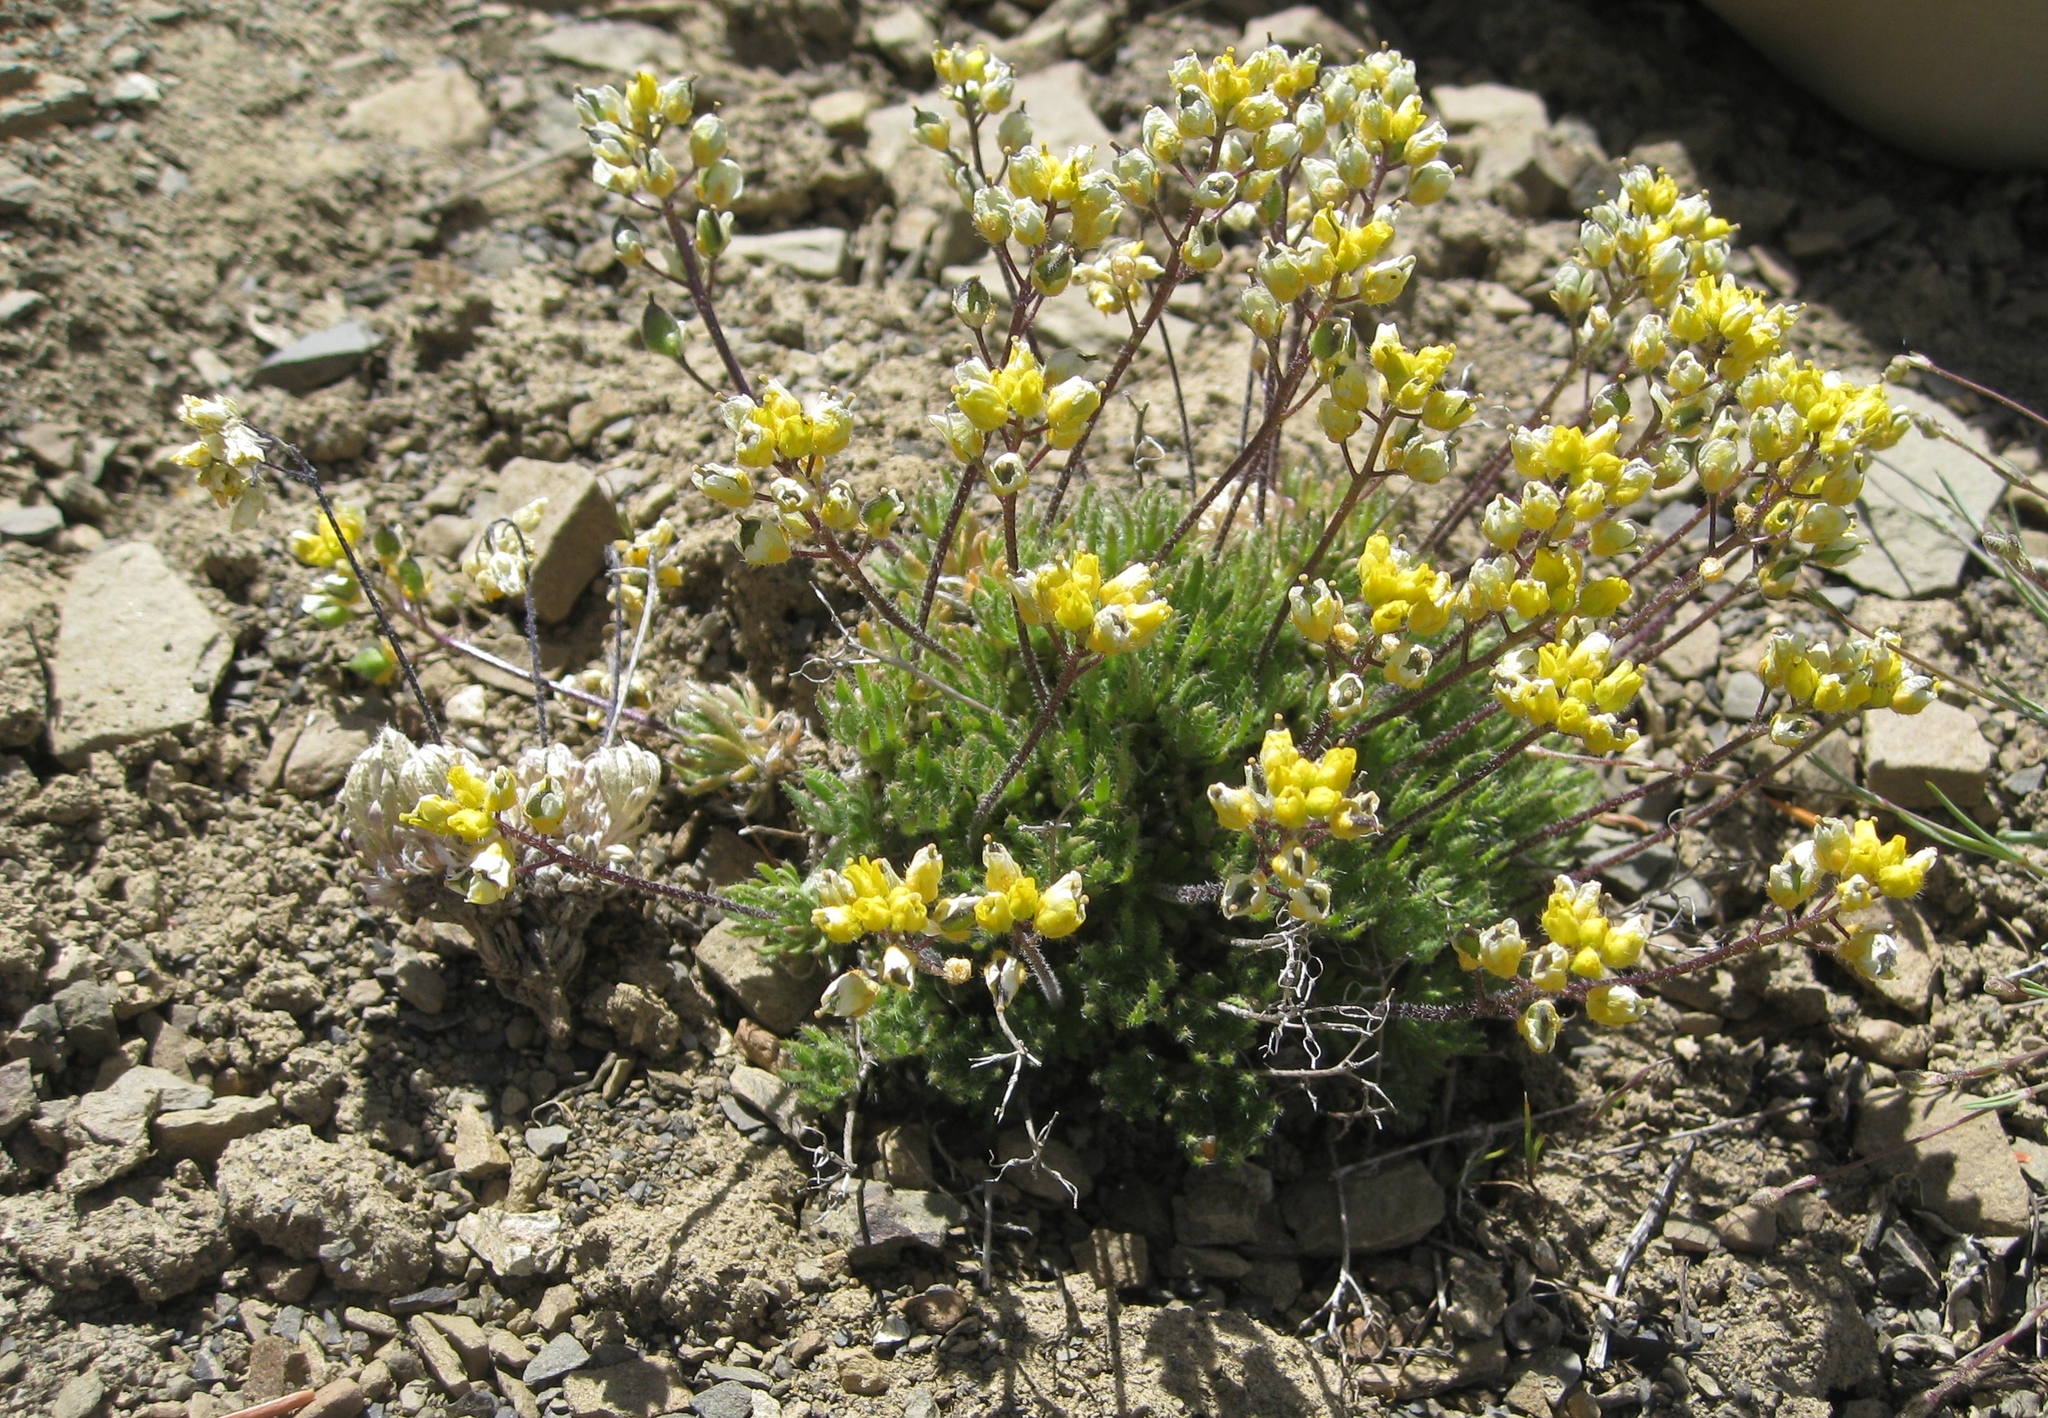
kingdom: Plantae
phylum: Tracheophyta
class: Magnoliopsida
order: Brassicales
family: Brassicaceae
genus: Draba
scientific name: Draba novolympica
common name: Olympic mountains draba
